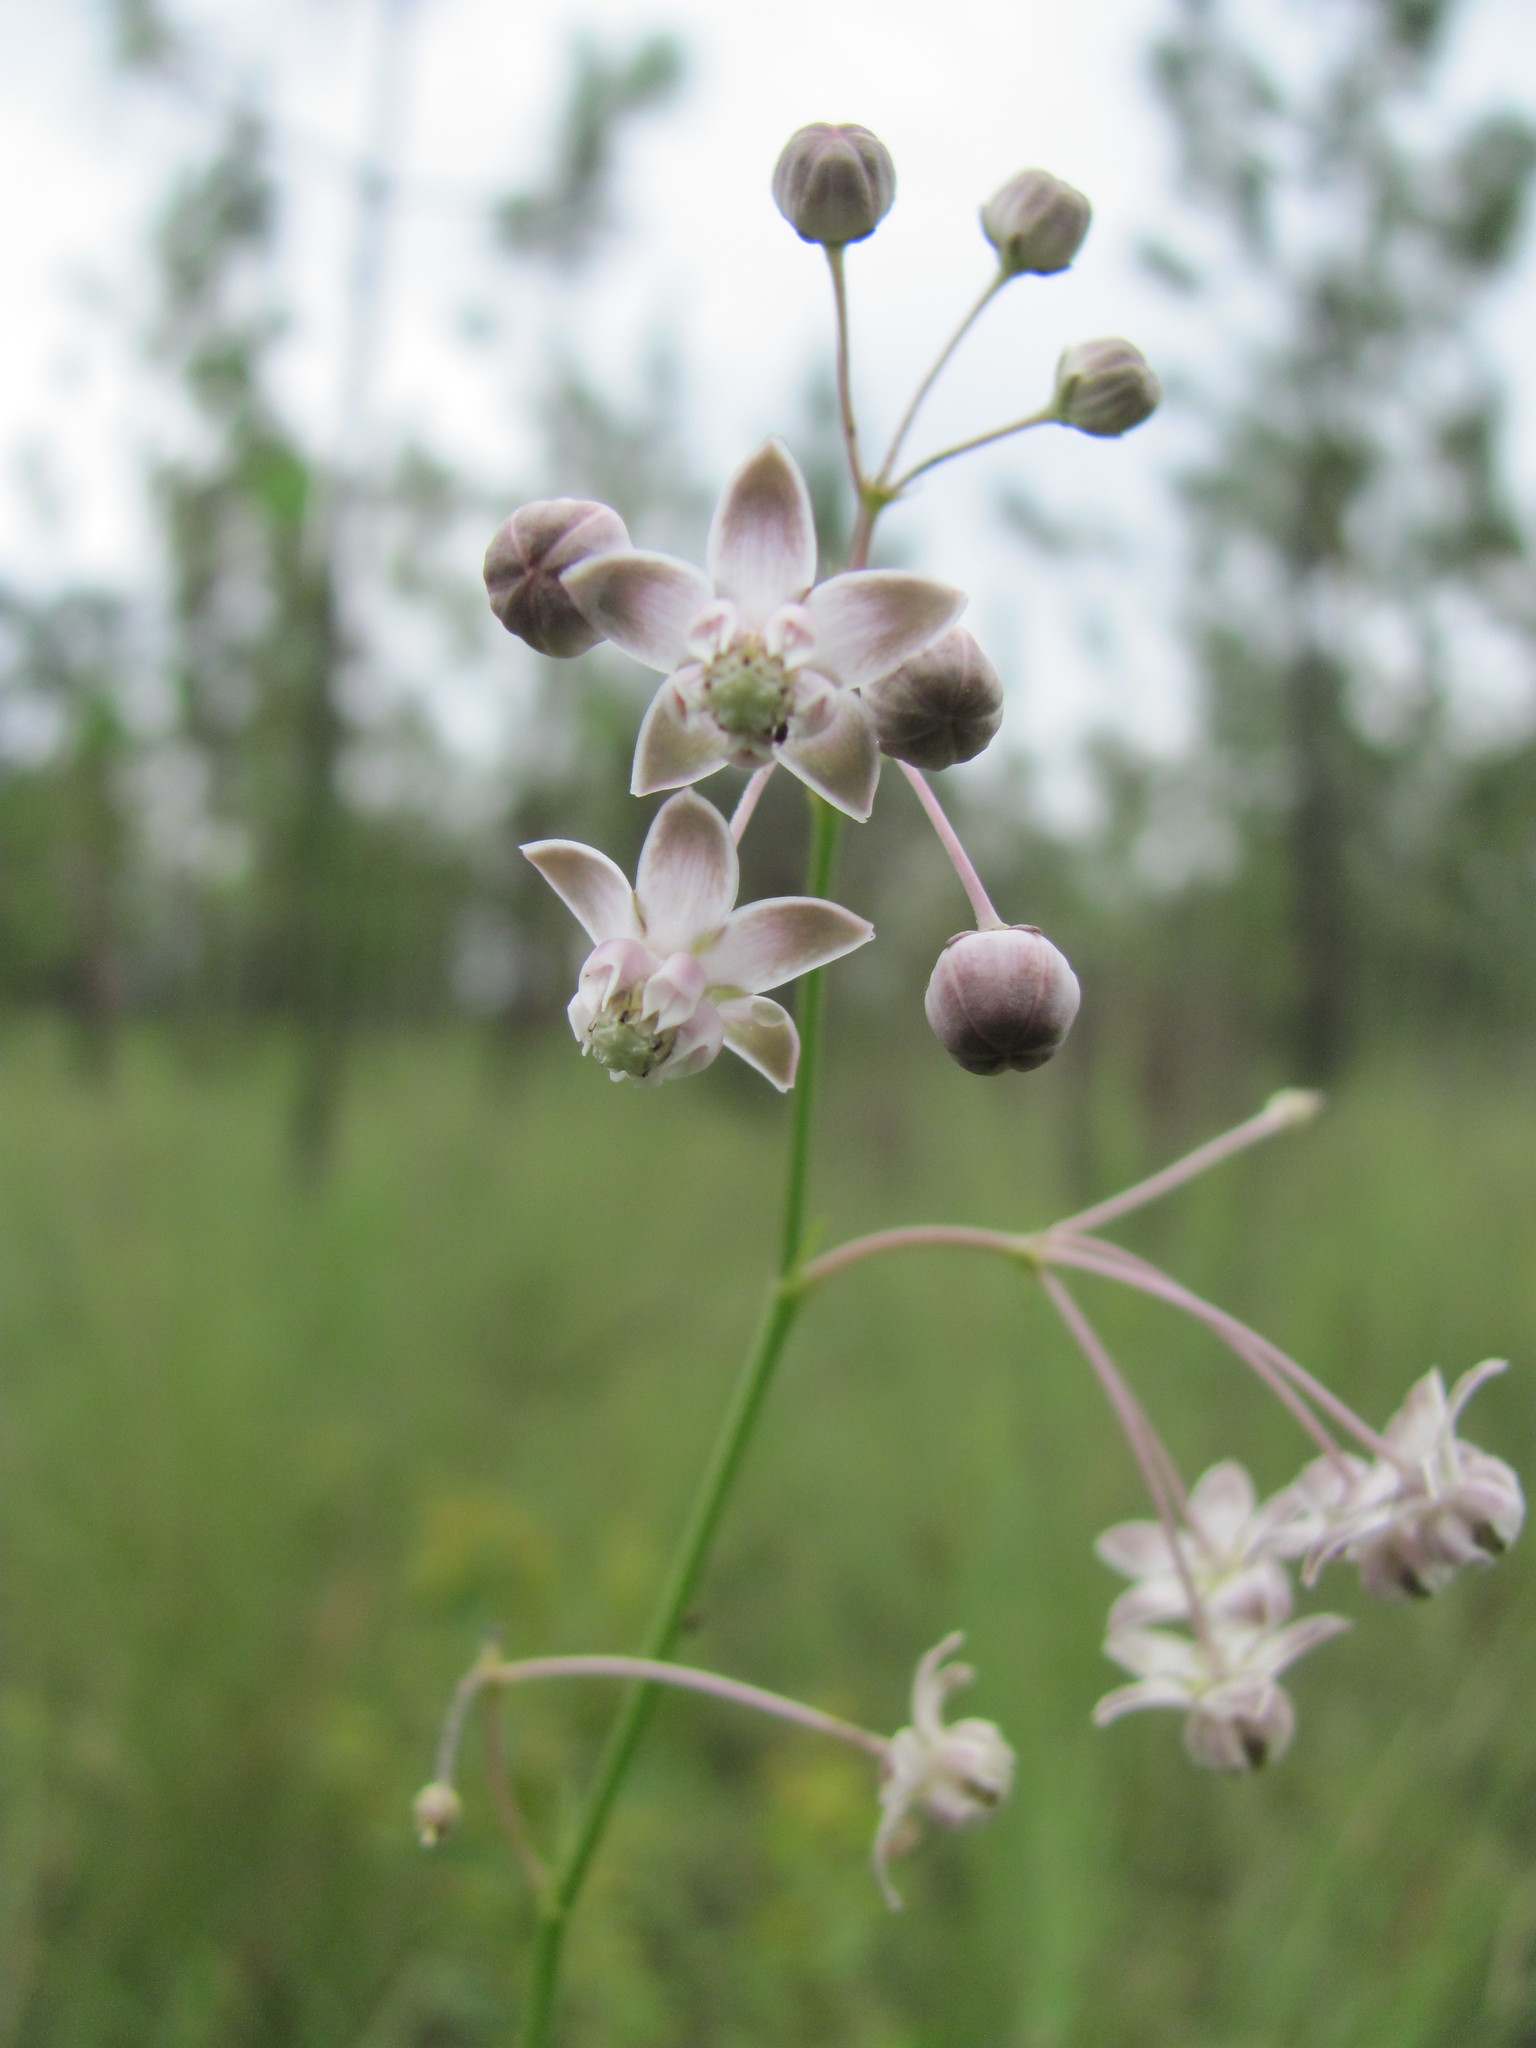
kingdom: Plantae
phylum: Tracheophyta
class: Magnoliopsida
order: Gentianales
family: Apocynaceae
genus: Asclepias
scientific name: Asclepias cinerea
